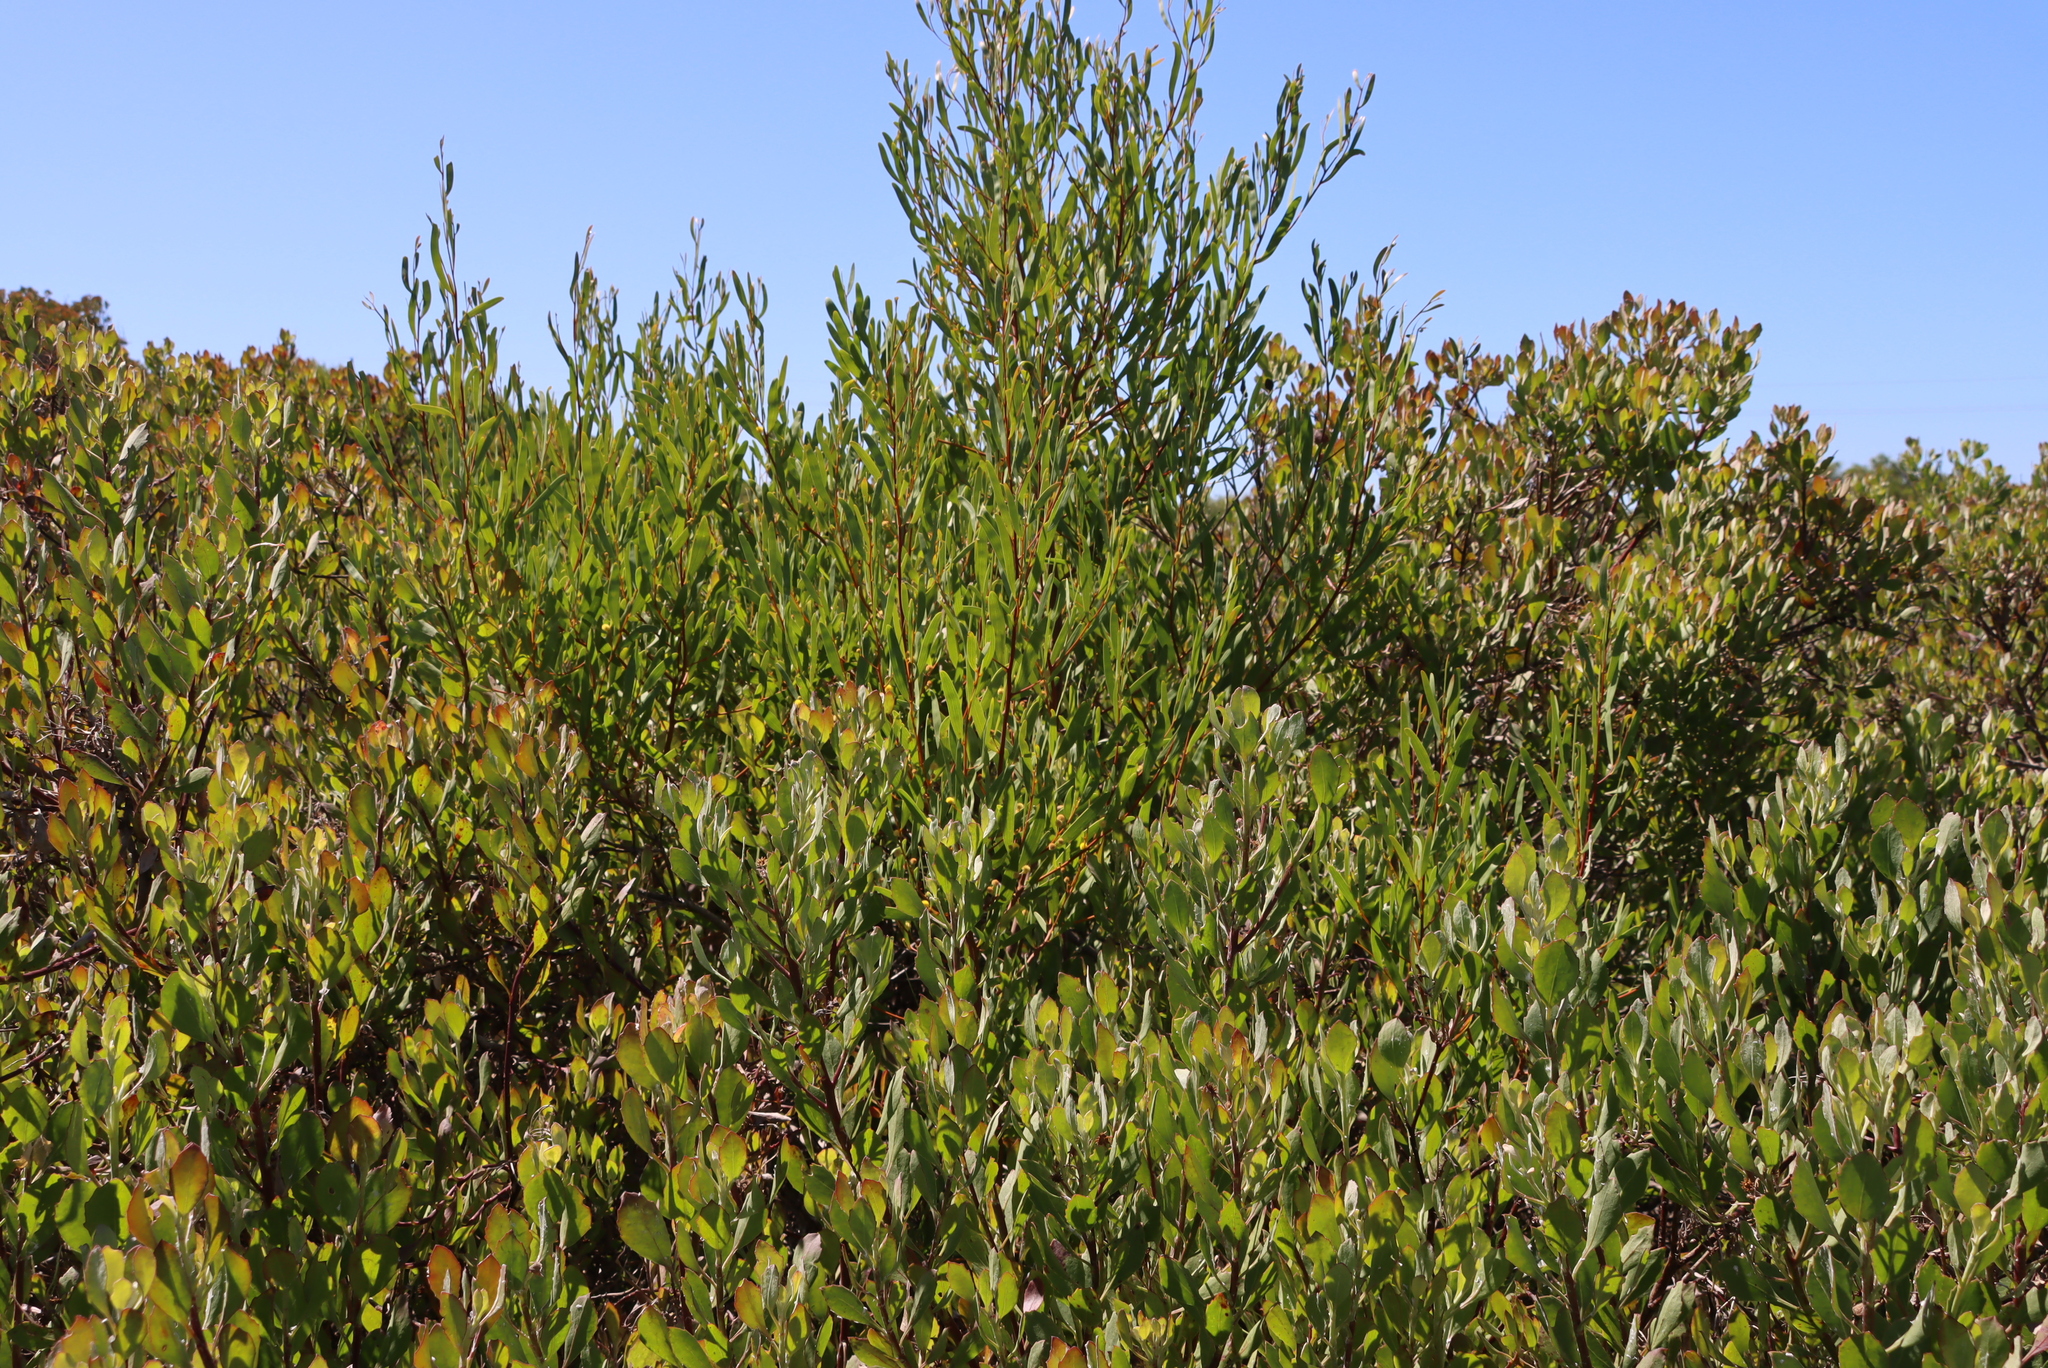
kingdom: Plantae
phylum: Tracheophyta
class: Magnoliopsida
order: Fabales
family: Fabaceae
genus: Acacia
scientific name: Acacia cyclops
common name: Coastal wattle
